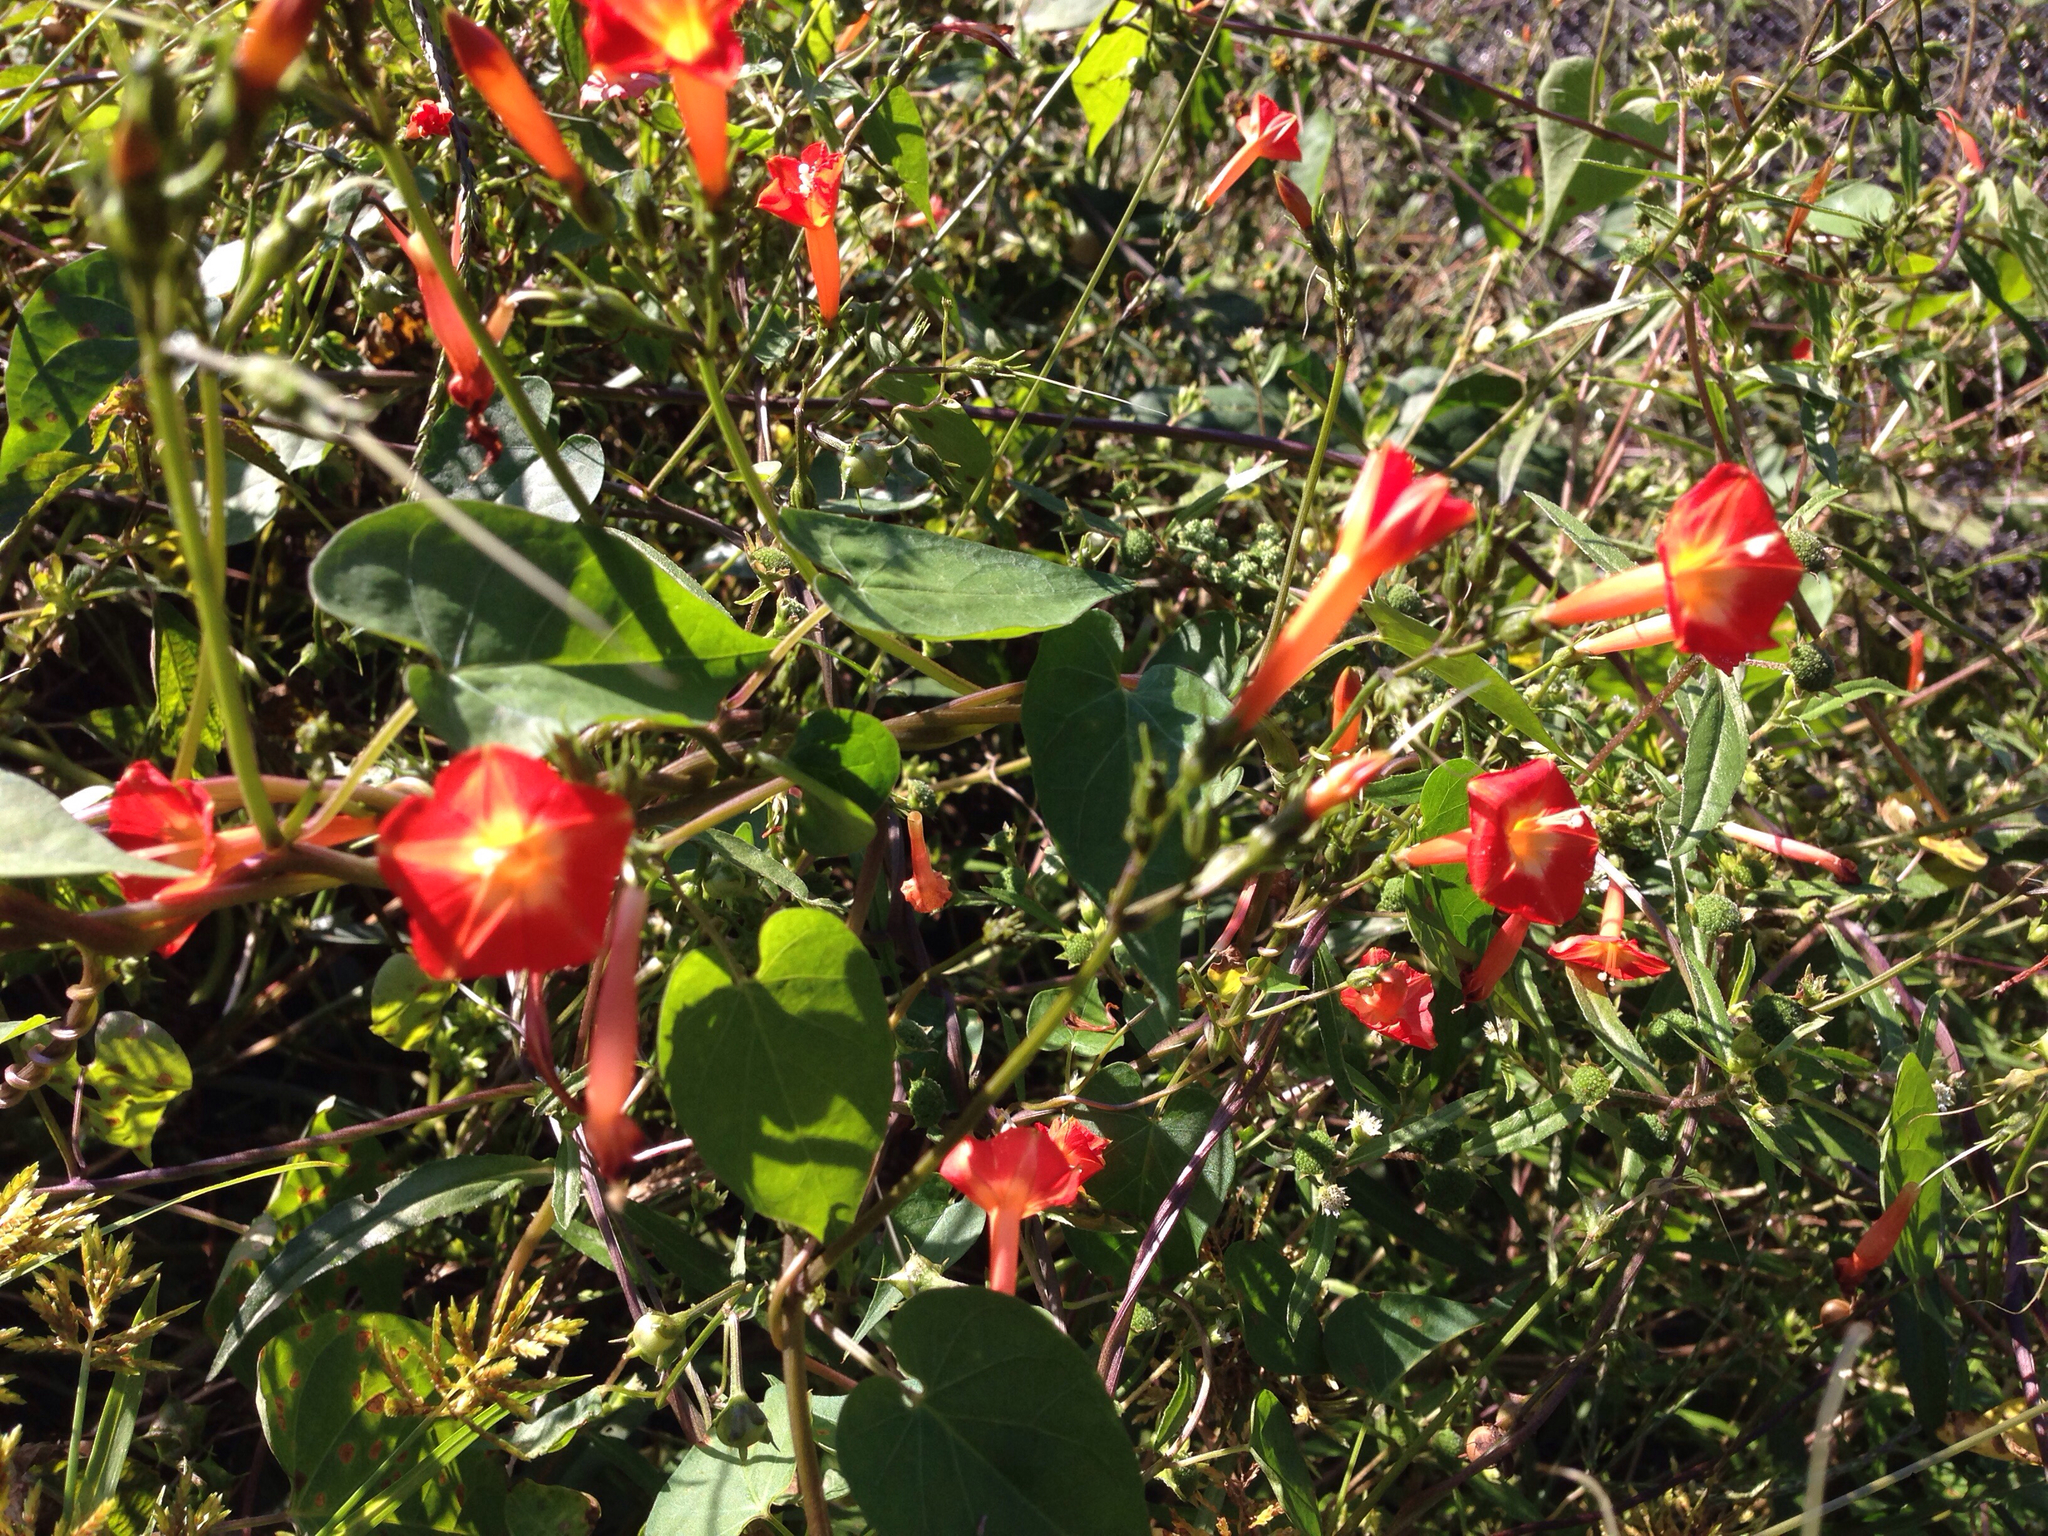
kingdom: Plantae
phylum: Tracheophyta
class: Magnoliopsida
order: Solanales
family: Convolvulaceae
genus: Ipomoea
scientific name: Ipomoea coccinea
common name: Red morning-glory
